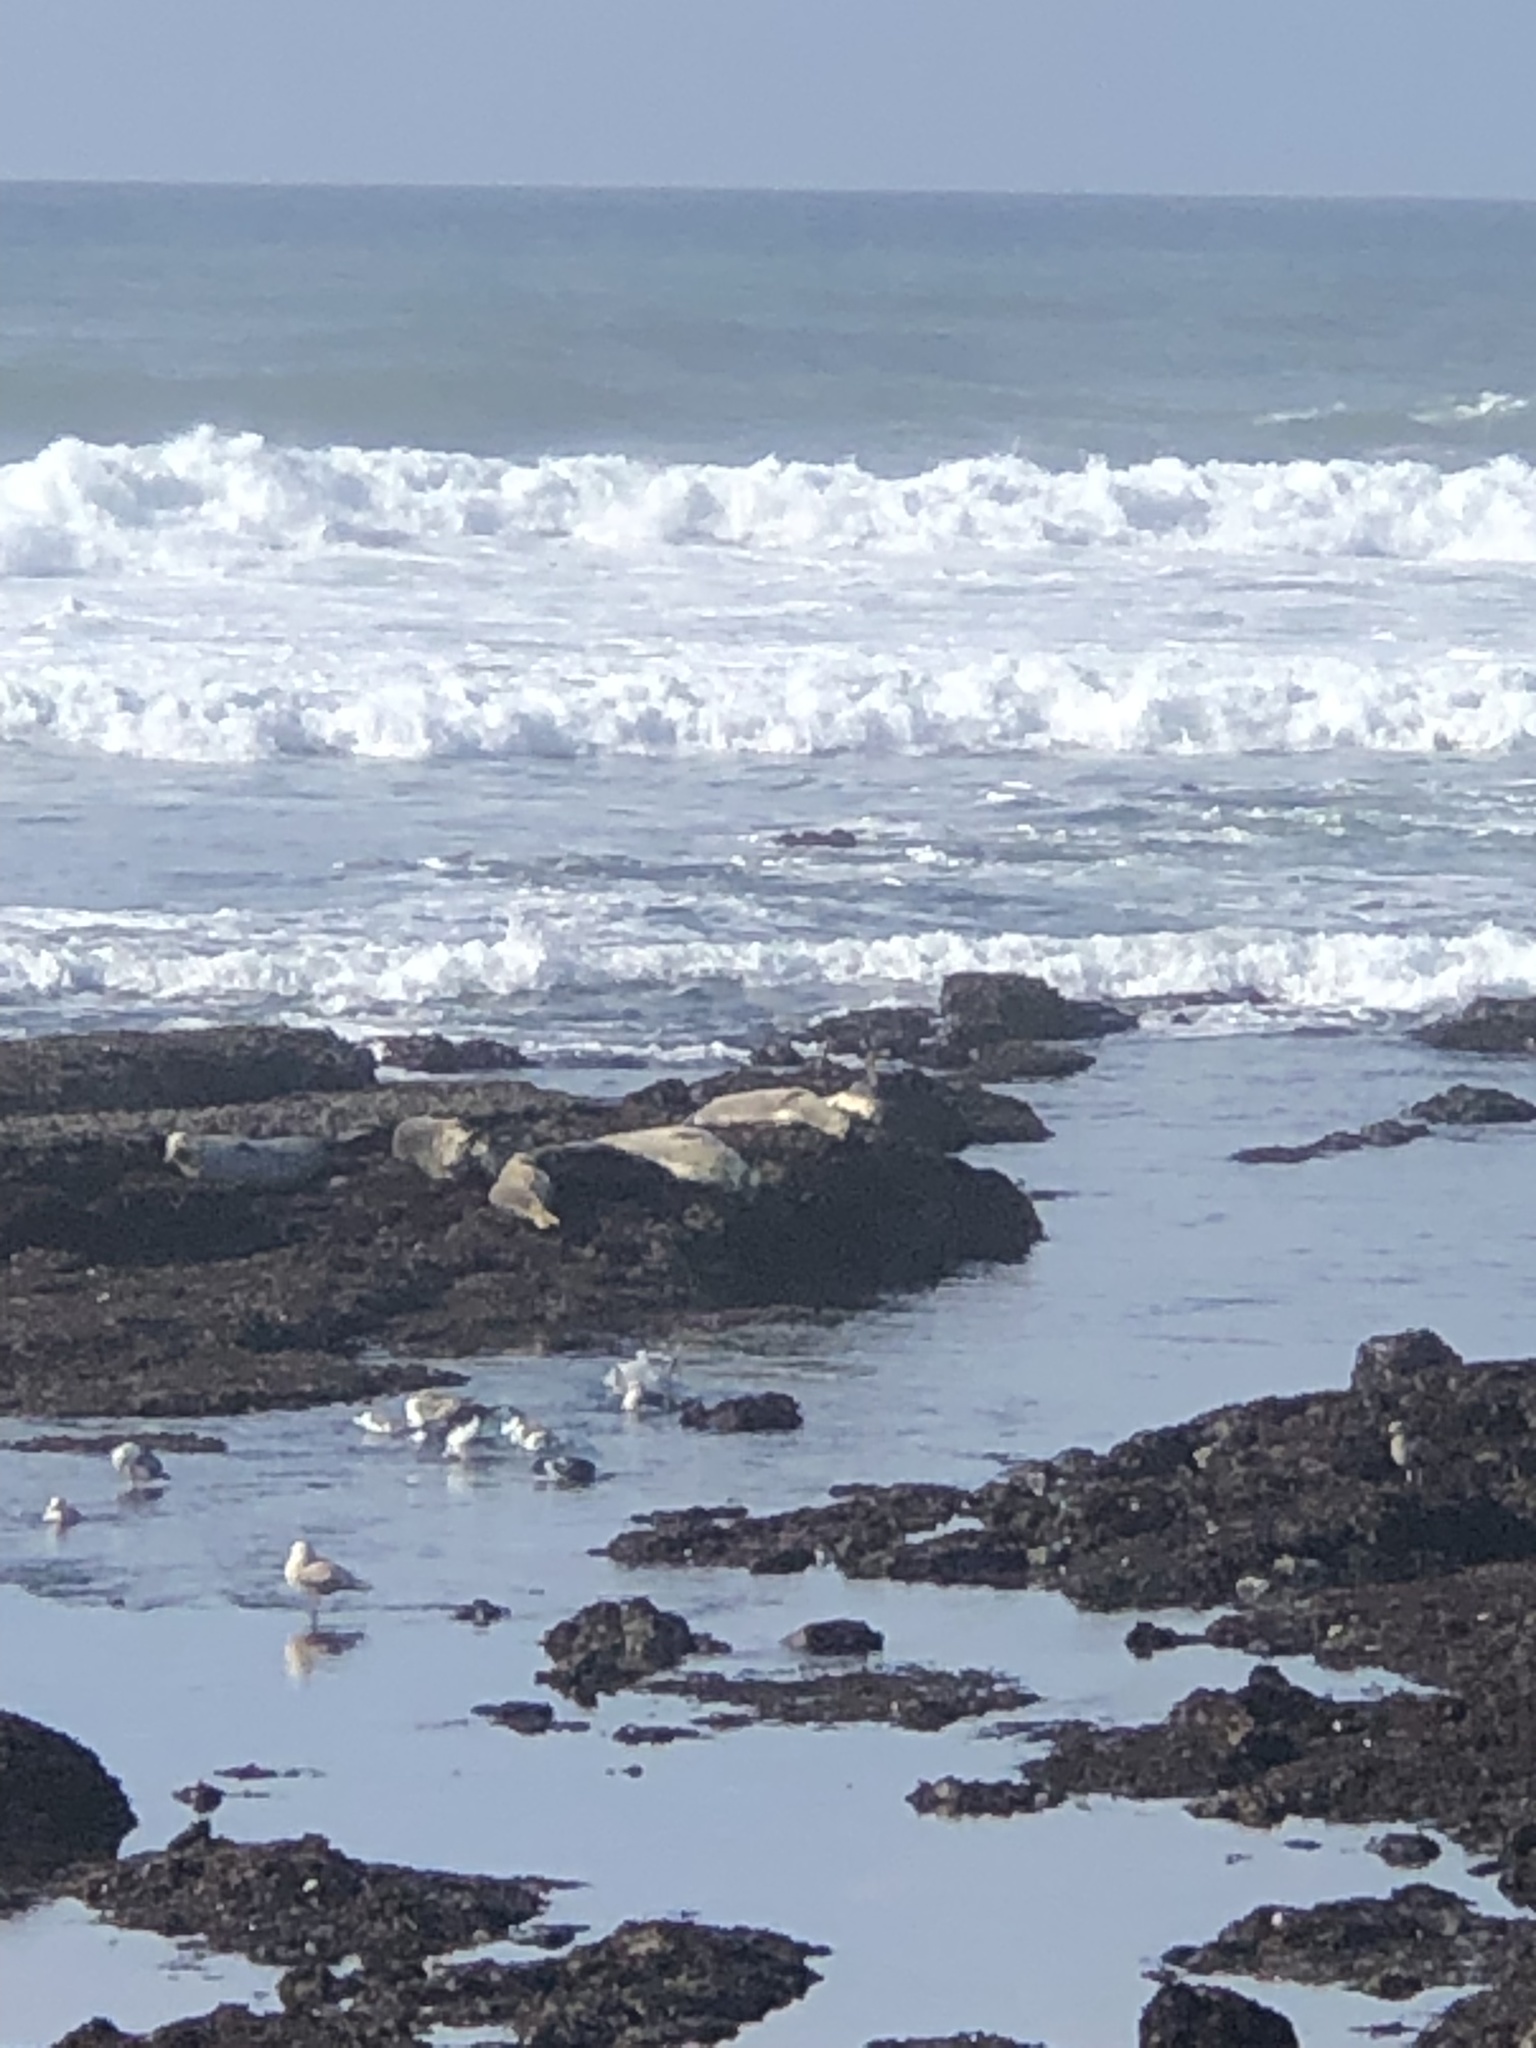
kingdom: Animalia
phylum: Chordata
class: Mammalia
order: Carnivora
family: Phocidae
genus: Phoca
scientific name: Phoca vitulina
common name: Harbor seal
